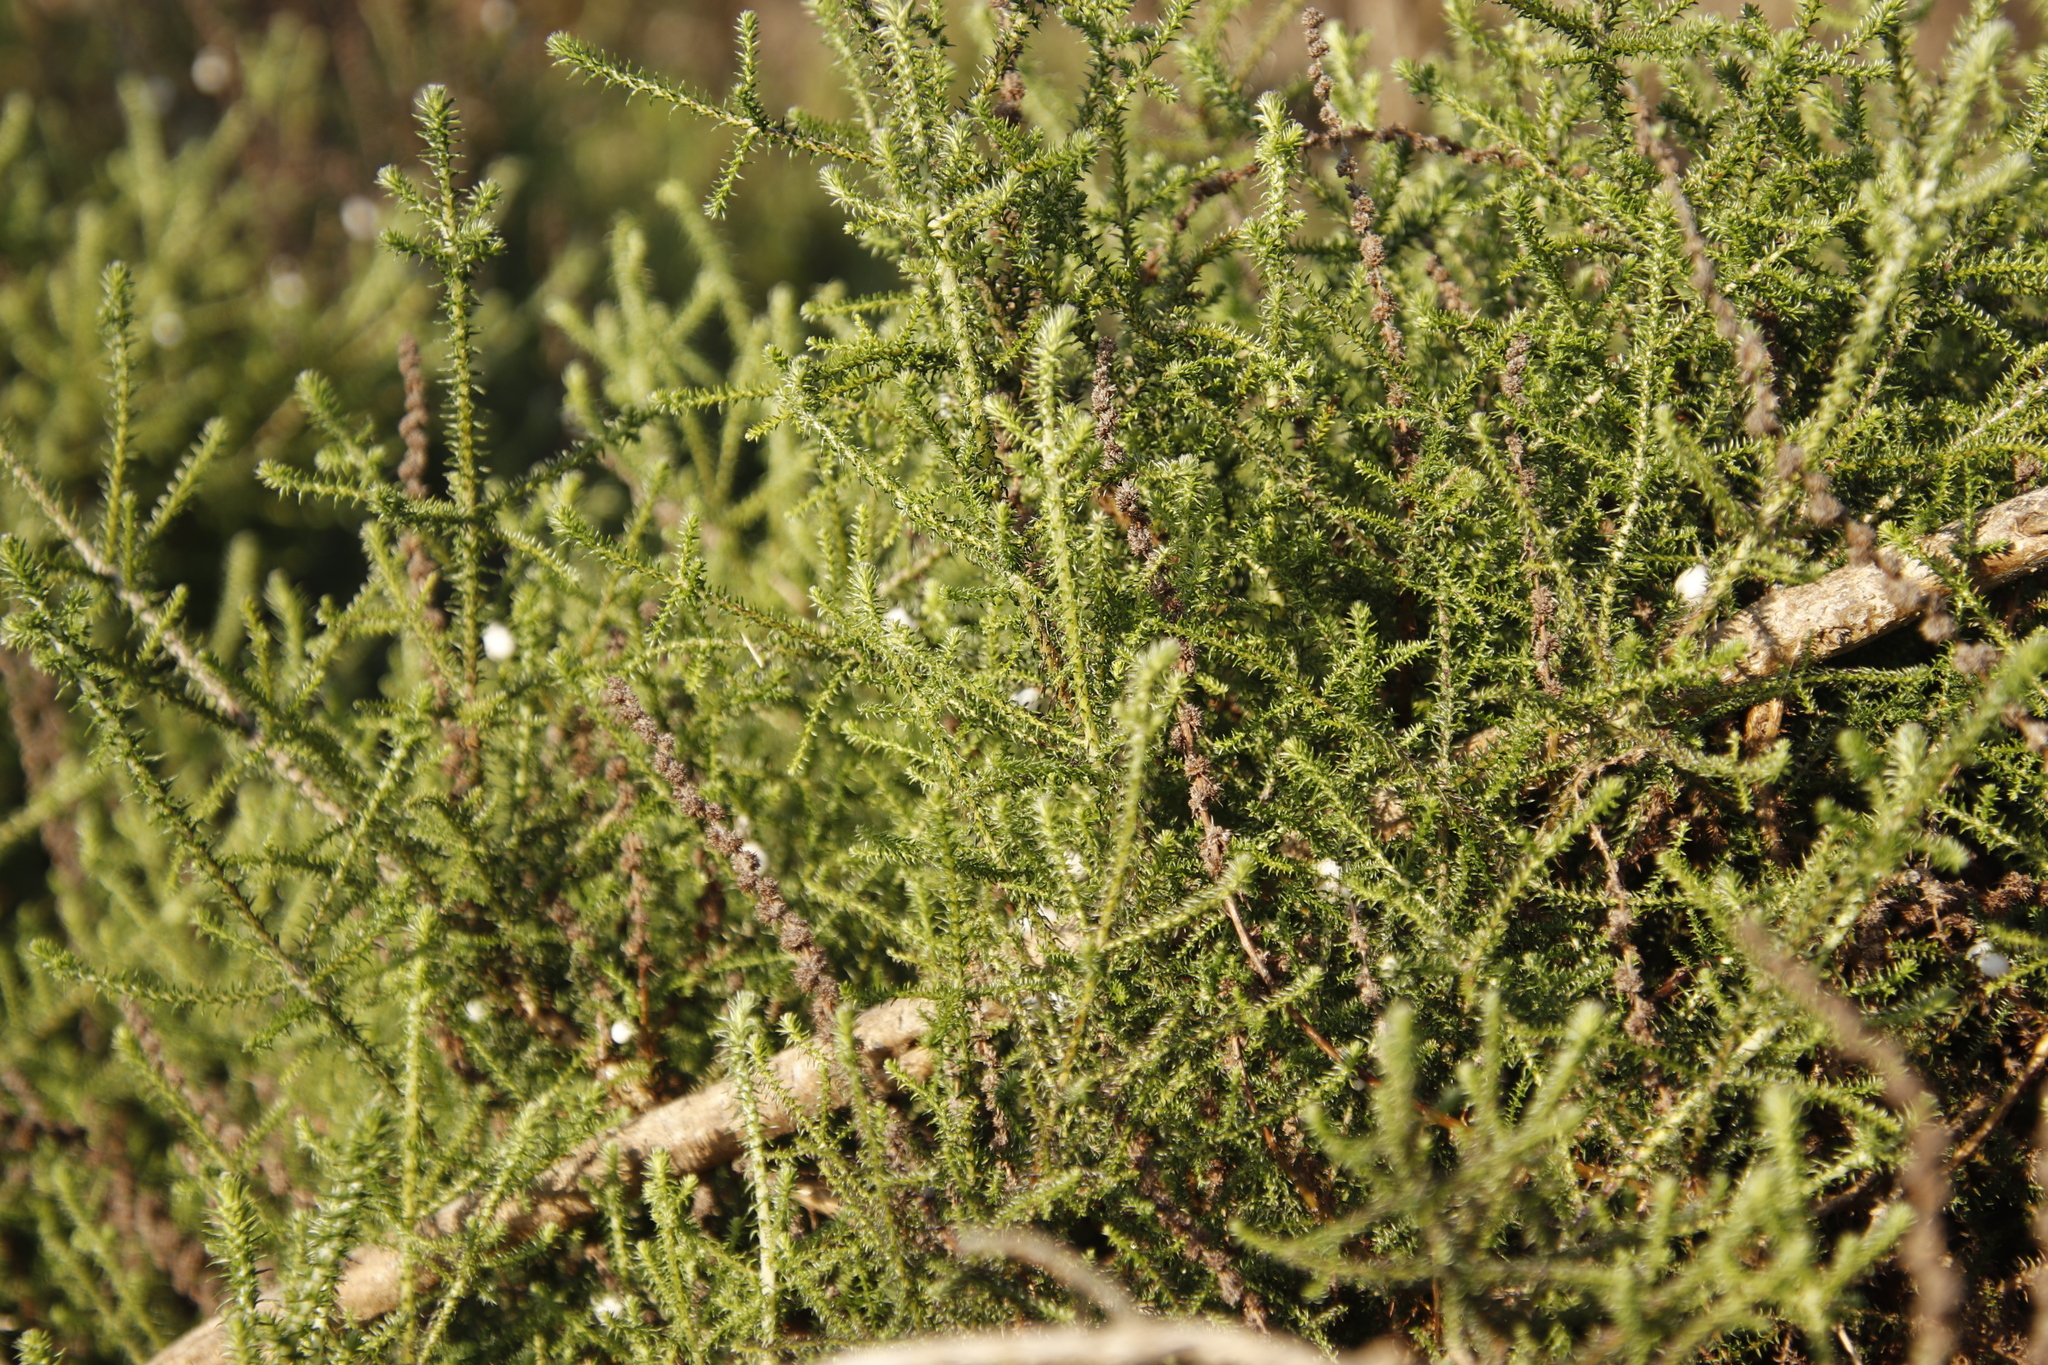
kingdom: Plantae
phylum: Tracheophyta
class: Magnoliopsida
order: Asterales
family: Asteraceae
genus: Seriphium
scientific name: Seriphium cinereum
